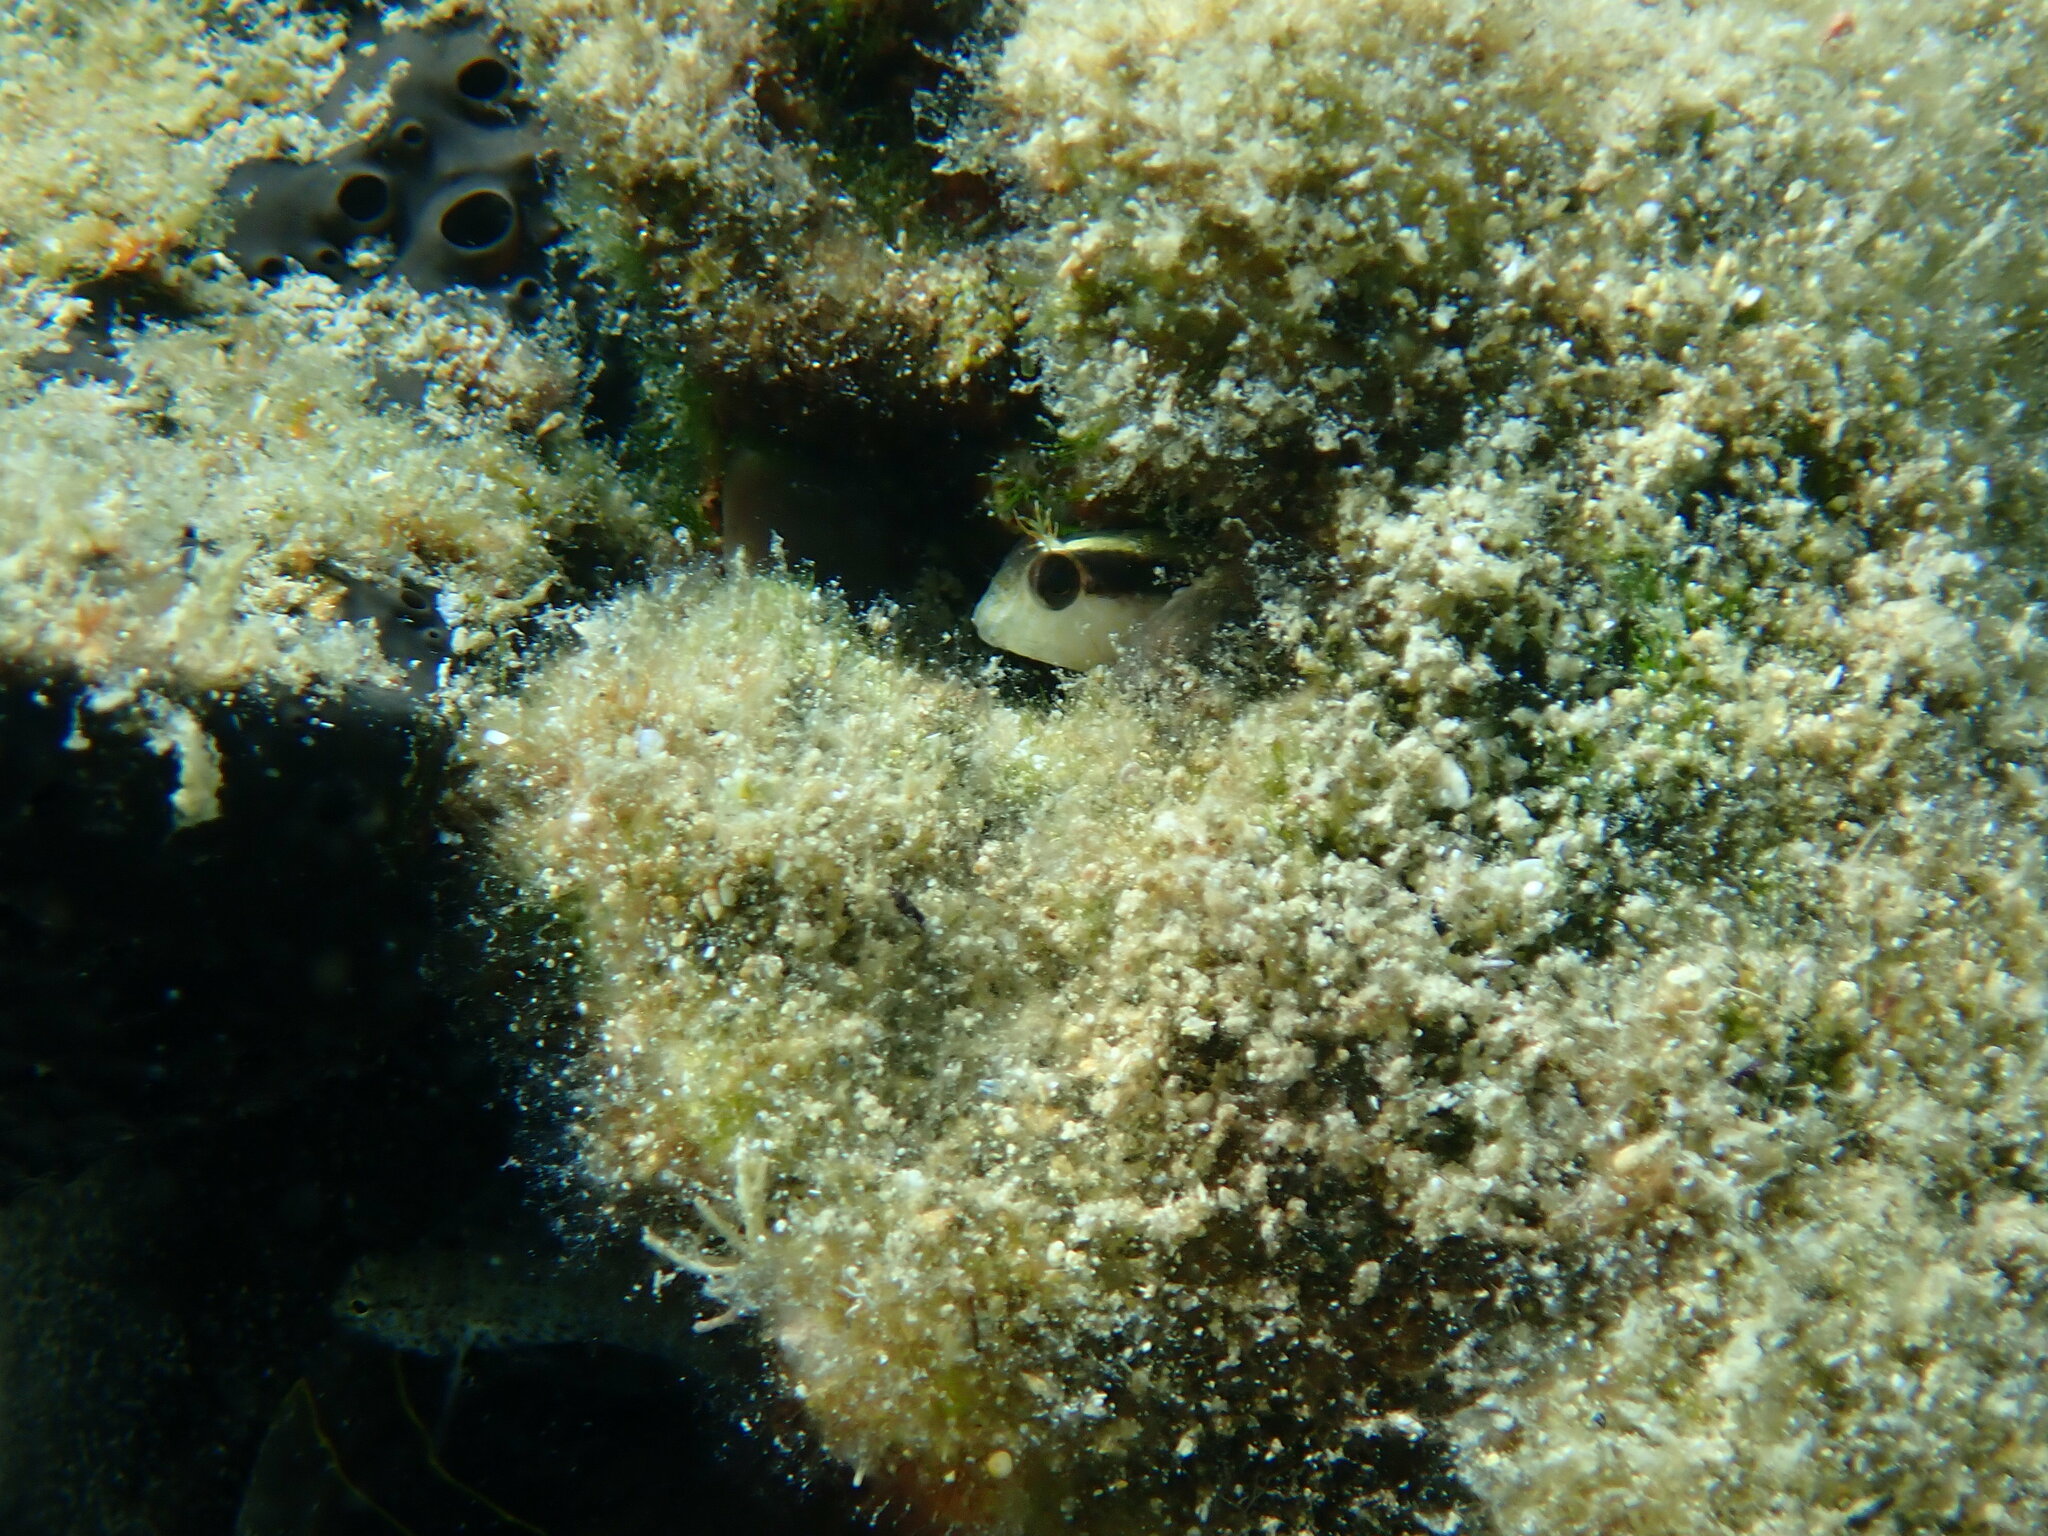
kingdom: Animalia
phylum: Chordata
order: Perciformes
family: Blenniidae
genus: Parablennius
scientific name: Parablennius rouxi
